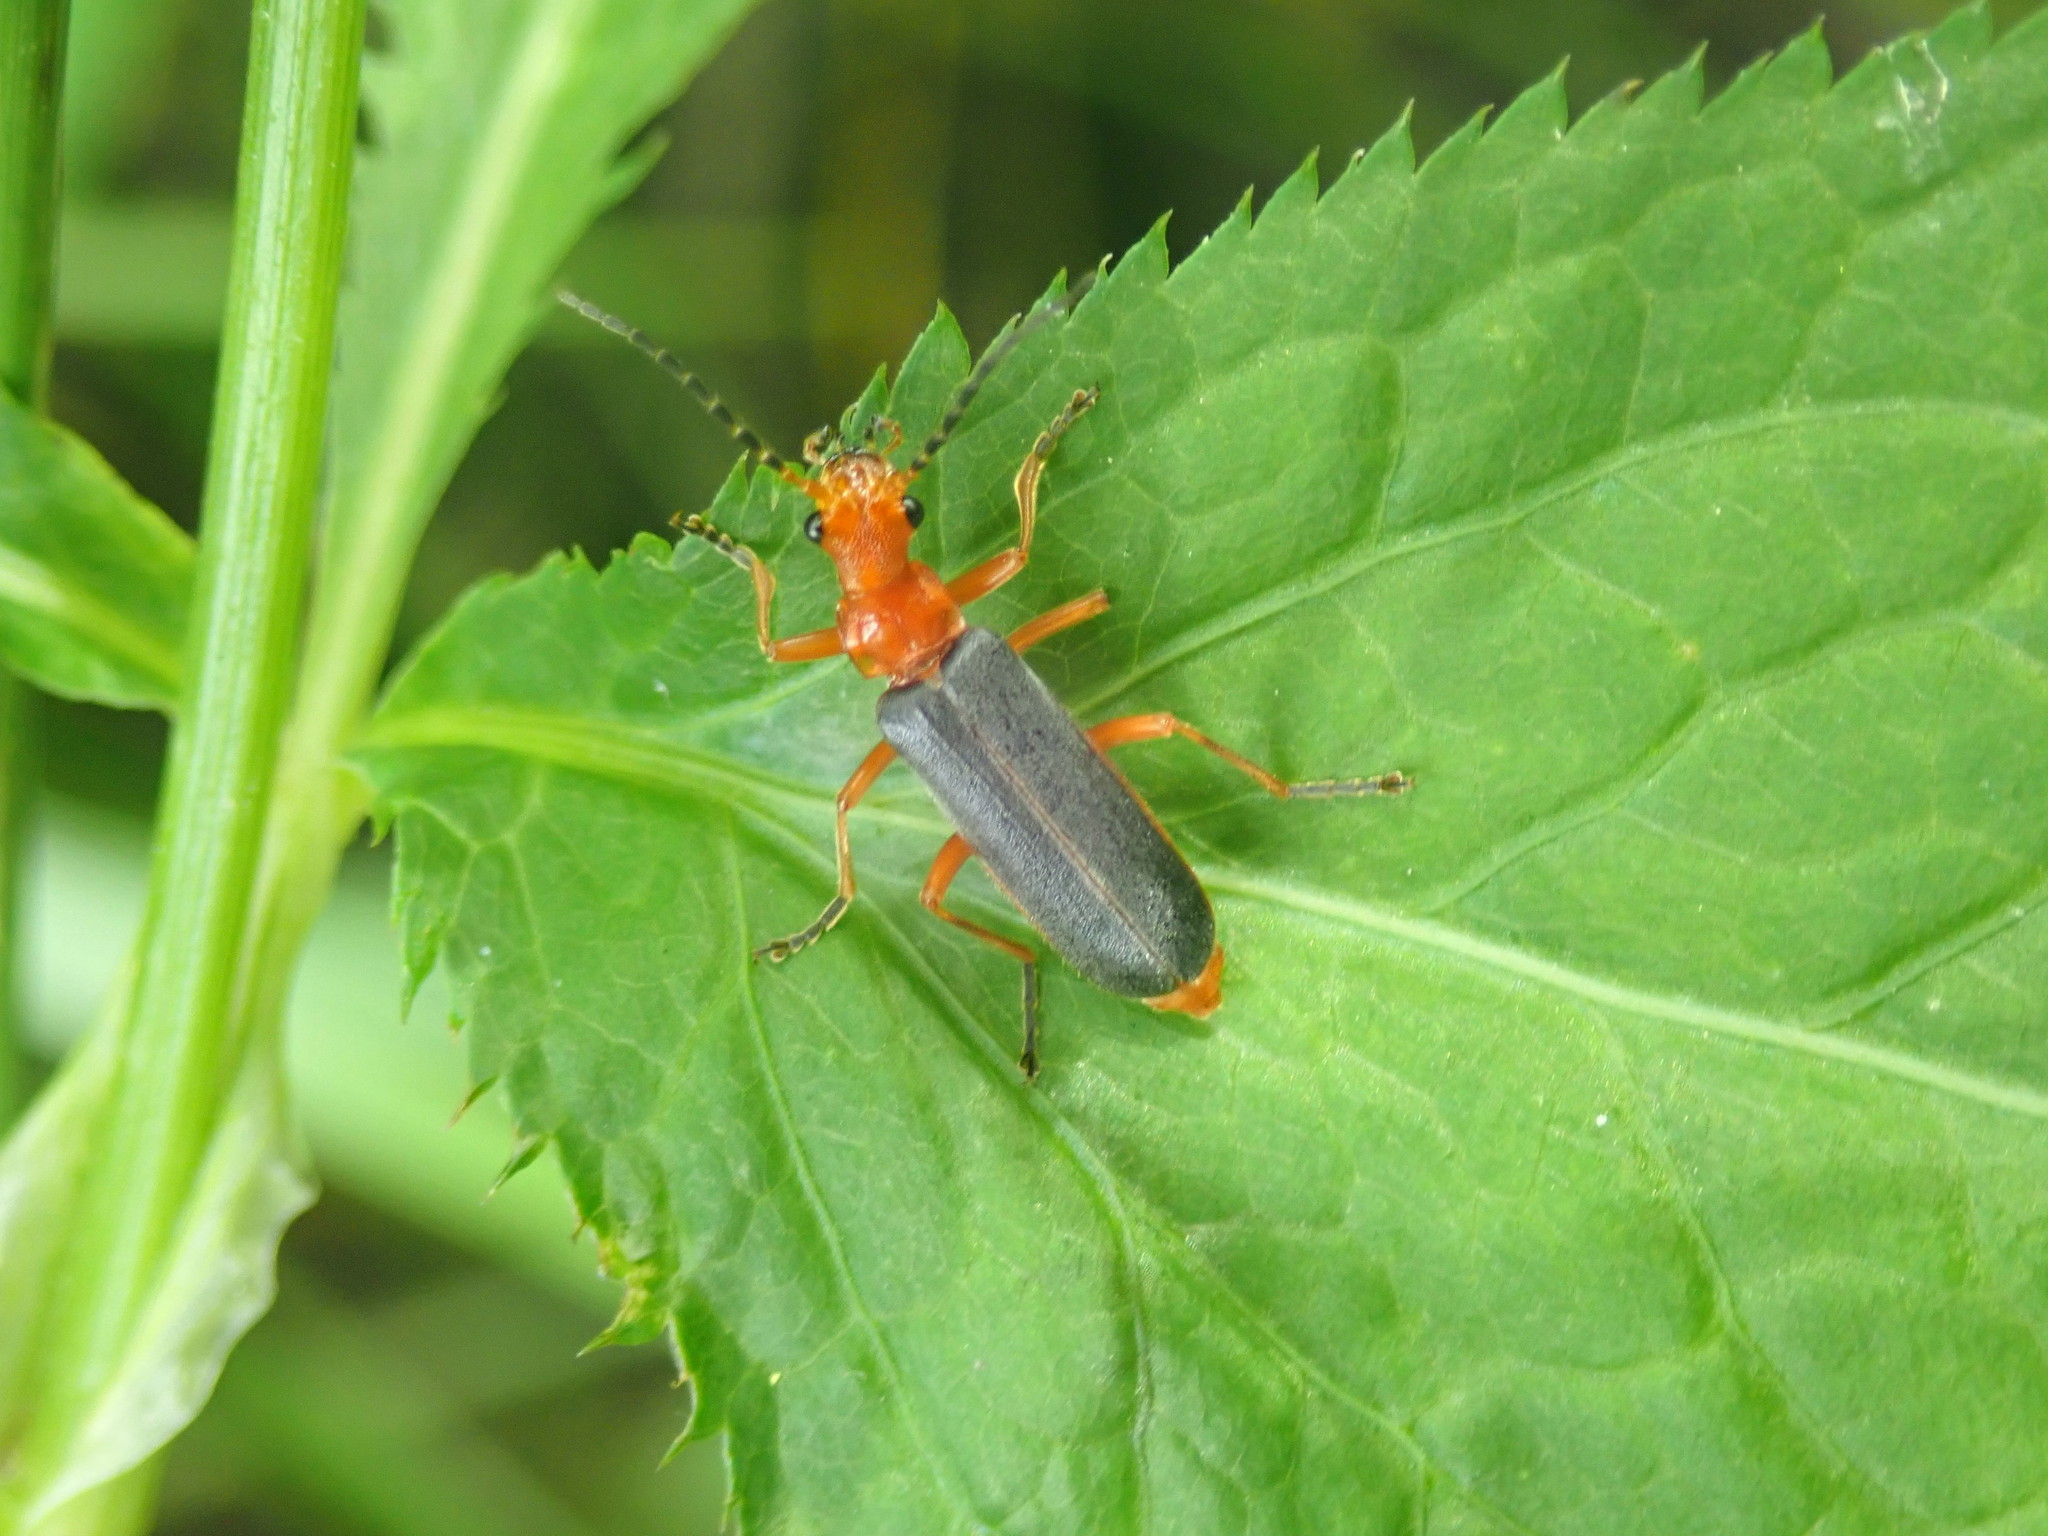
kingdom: Animalia
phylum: Arthropoda
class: Insecta
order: Coleoptera
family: Cantharidae
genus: Podabrus
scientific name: Podabrus tomentosus
